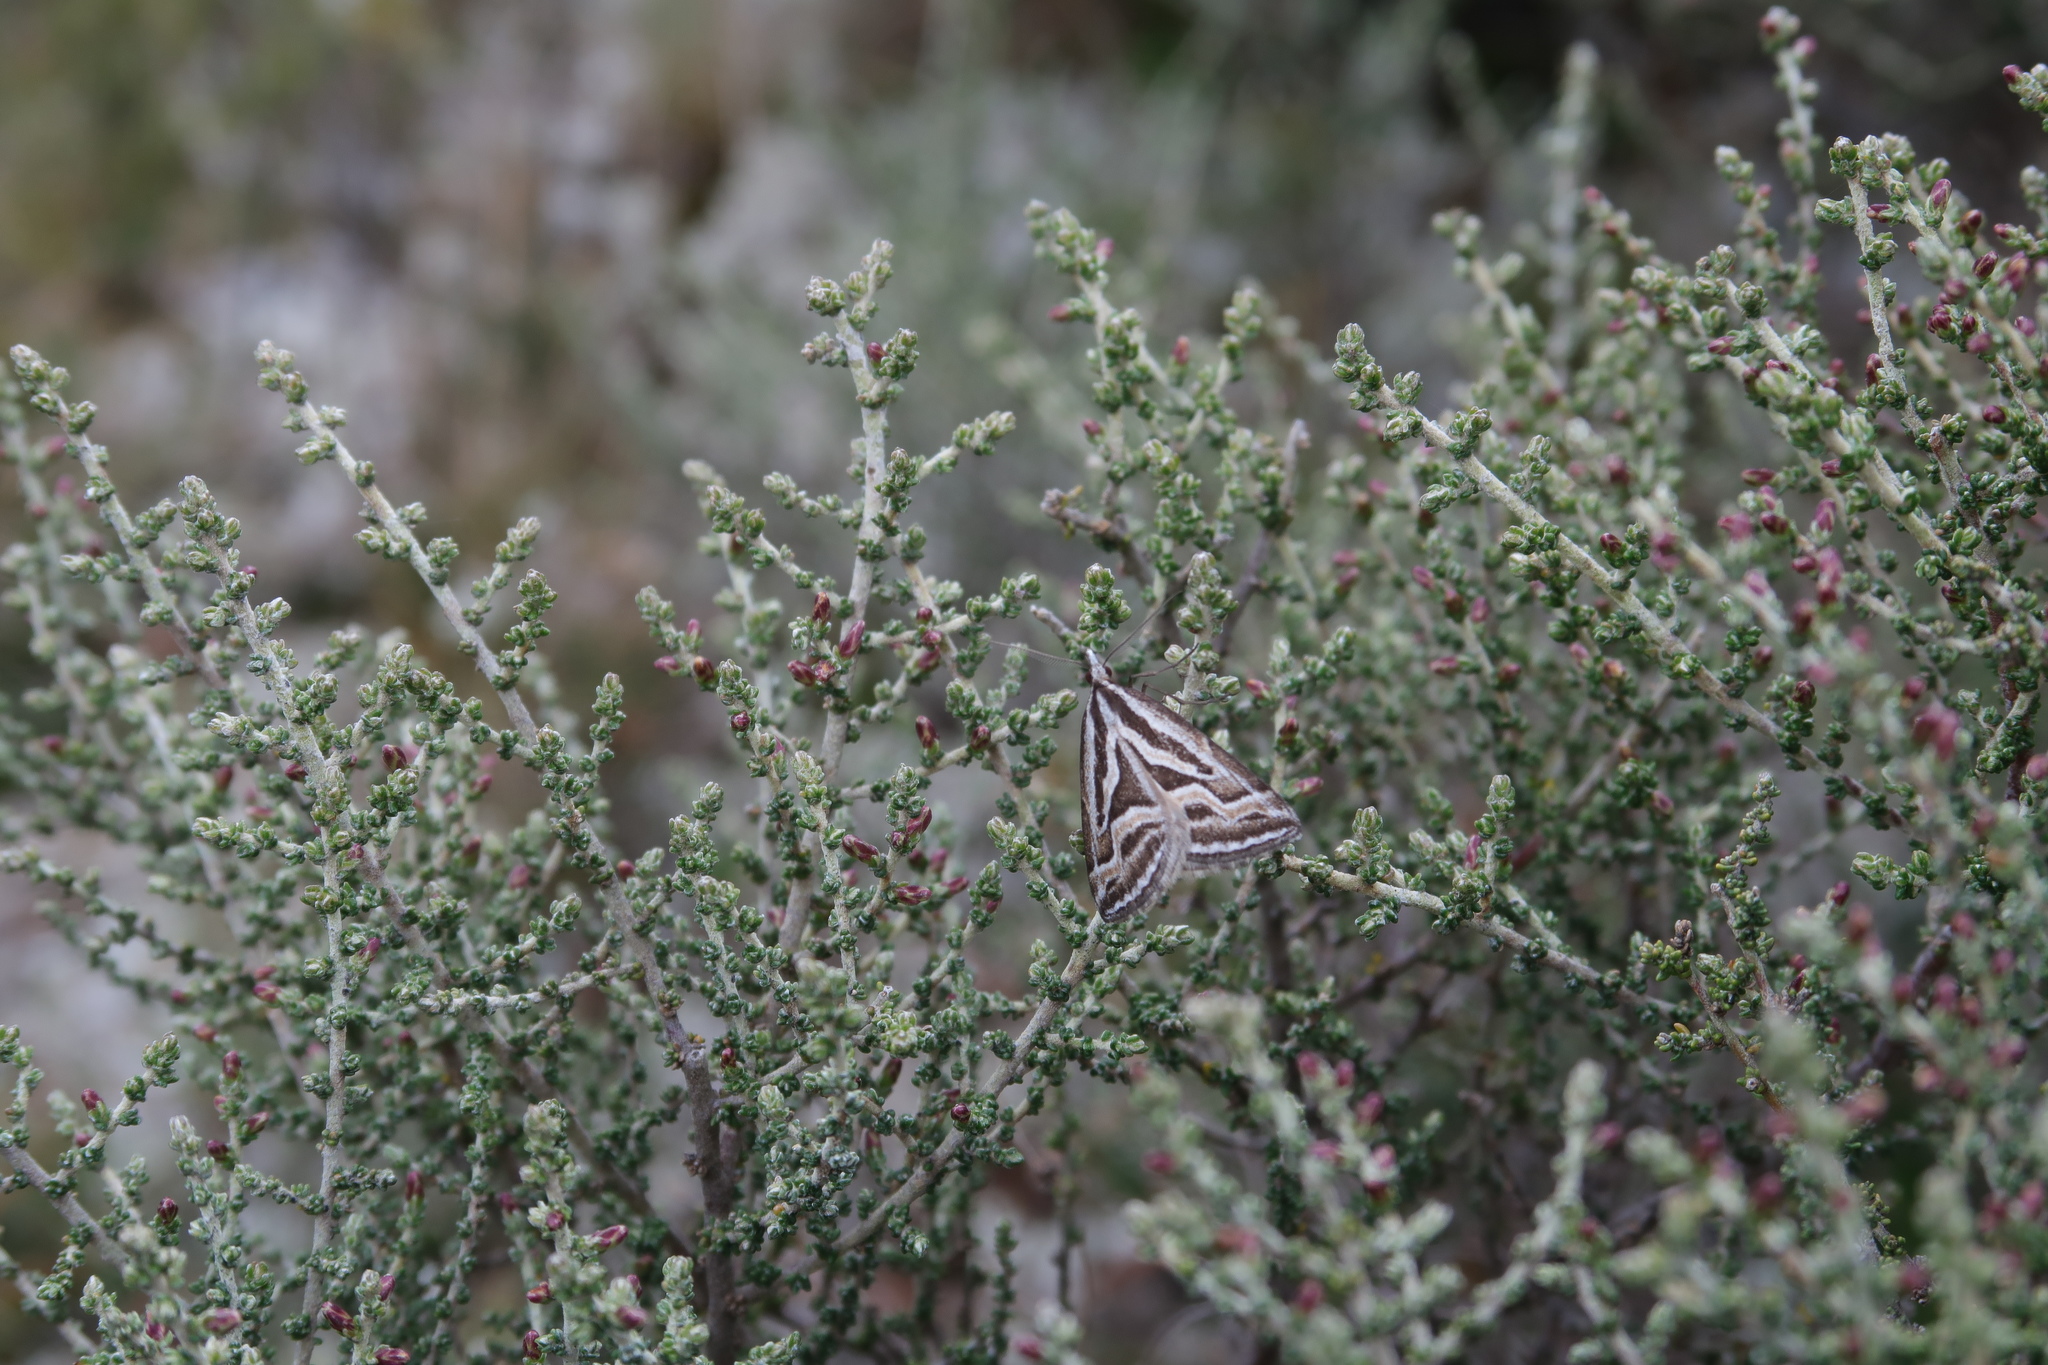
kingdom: Animalia
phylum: Arthropoda
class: Insecta
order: Lepidoptera
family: Geometridae
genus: Dichromodes
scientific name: Dichromodes confluaria
